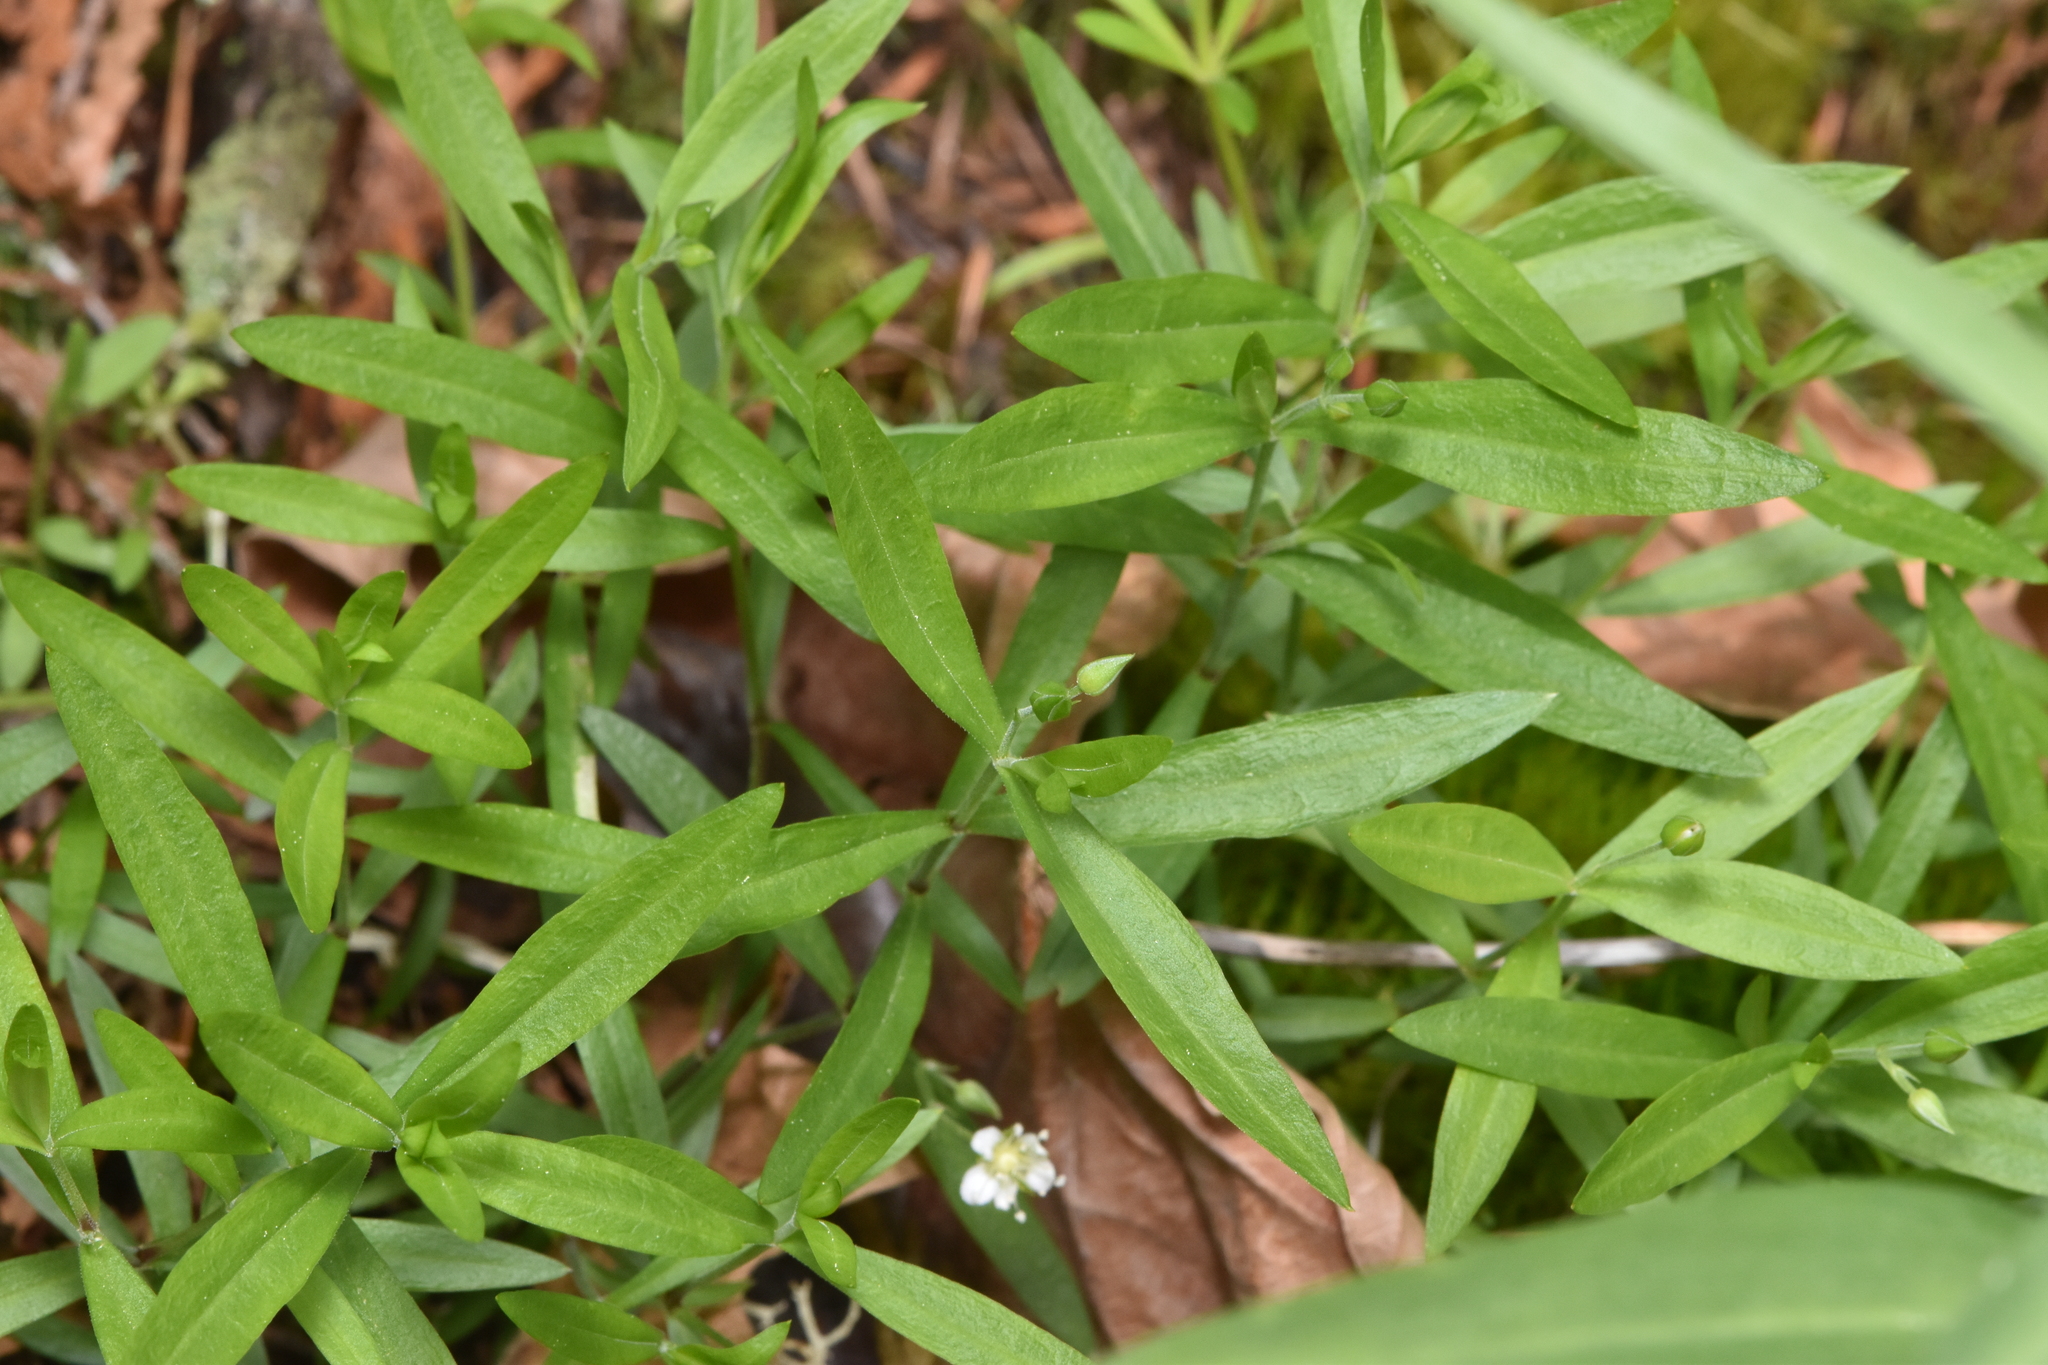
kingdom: Plantae
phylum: Tracheophyta
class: Magnoliopsida
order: Caryophyllales
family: Caryophyllaceae
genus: Moehringia
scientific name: Moehringia macrophylla
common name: Big-leaf sandwort
